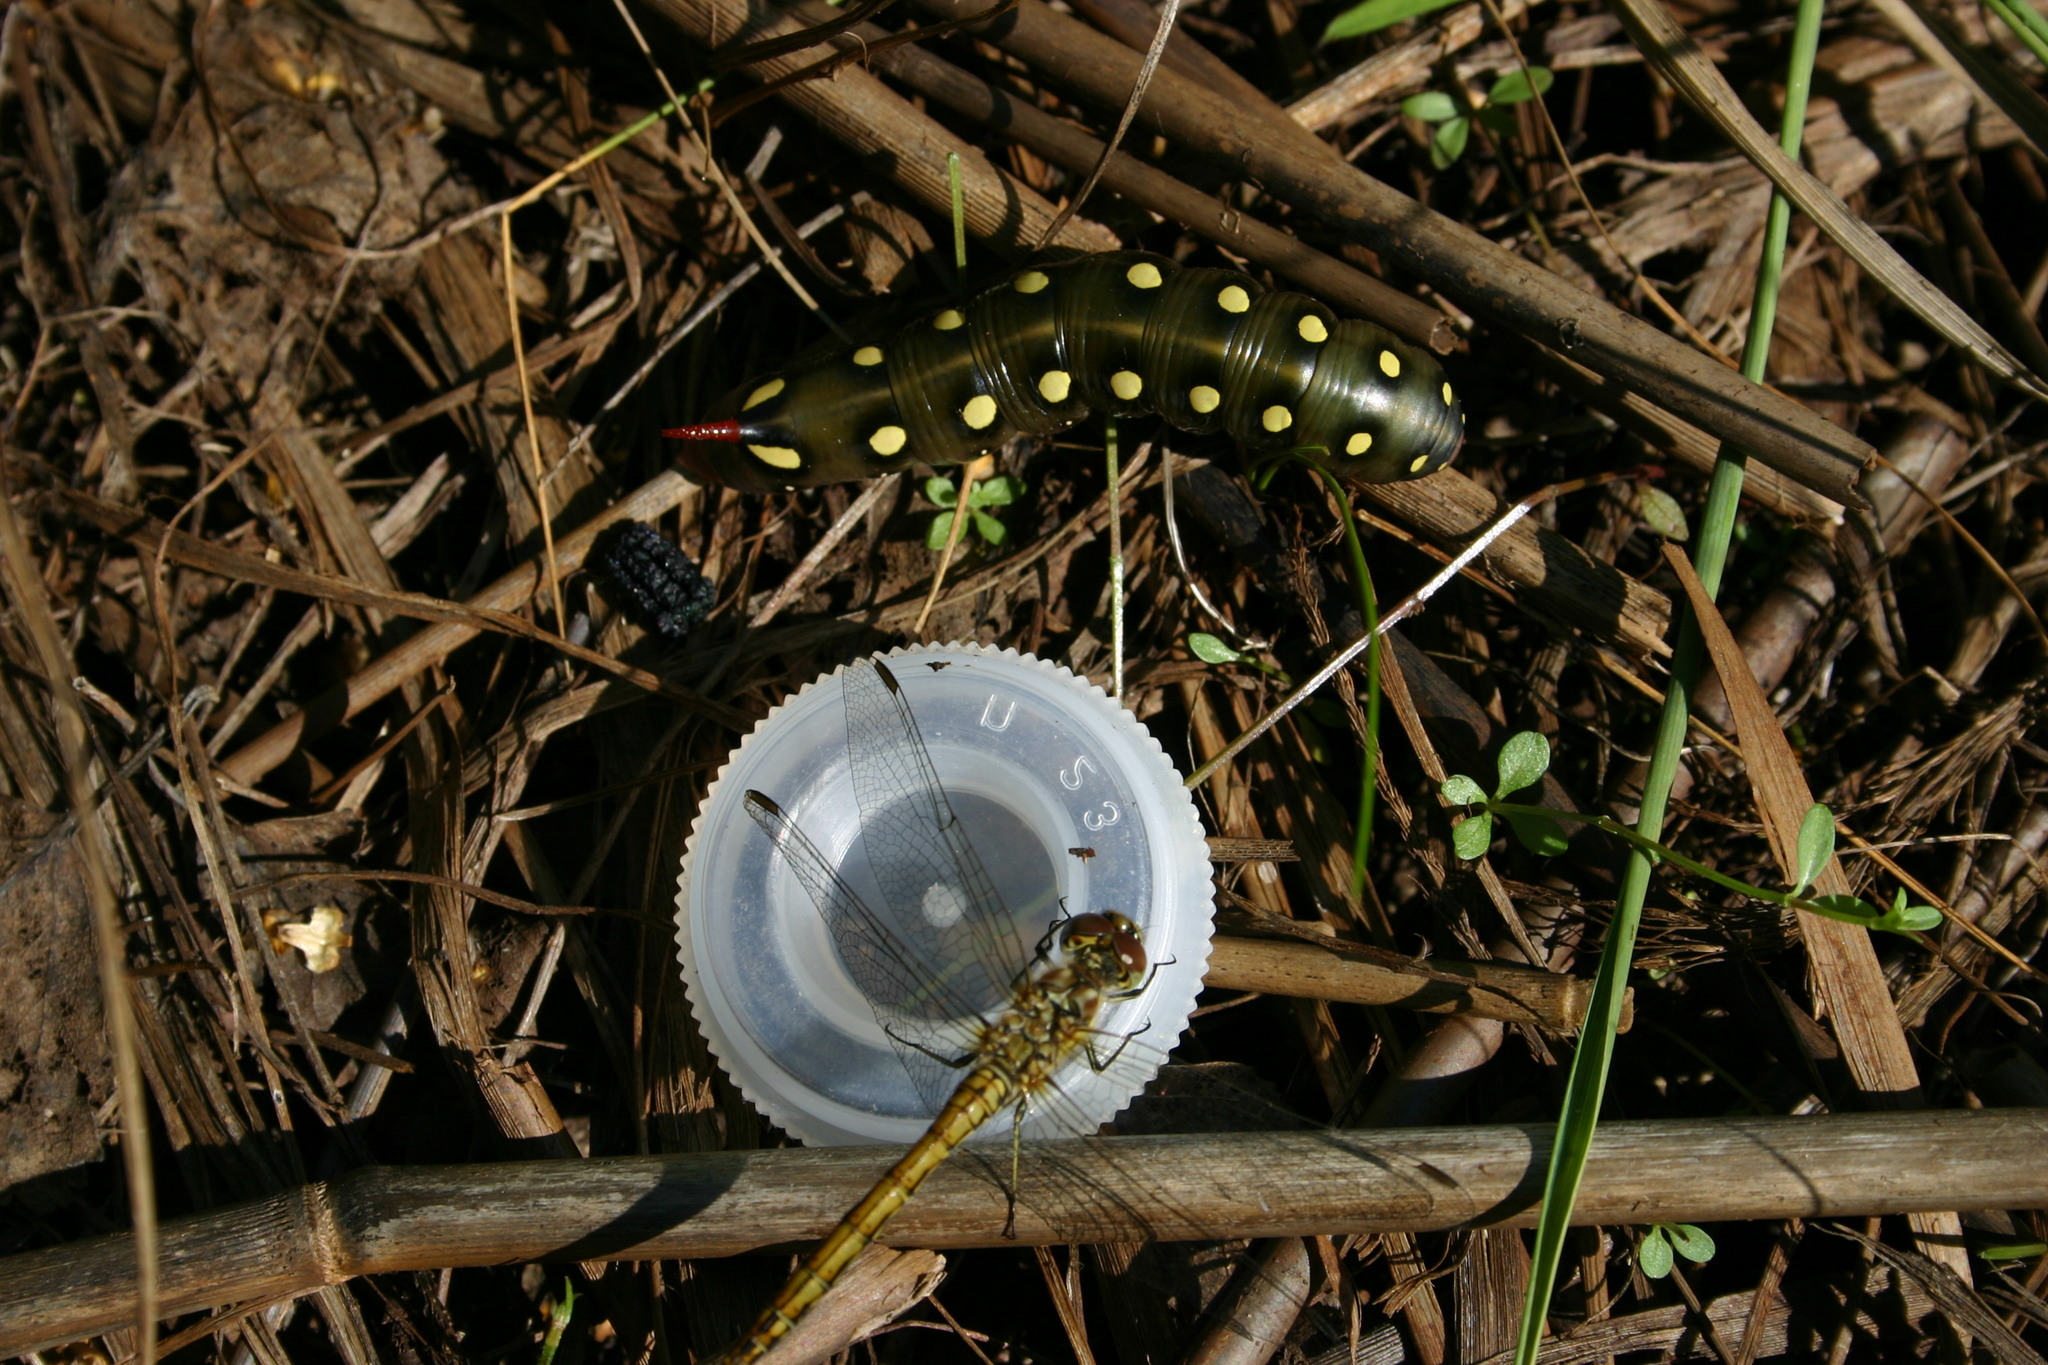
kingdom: Animalia
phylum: Arthropoda
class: Insecta
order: Lepidoptera
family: Sphingidae
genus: Hyles
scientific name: Hyles gallii
